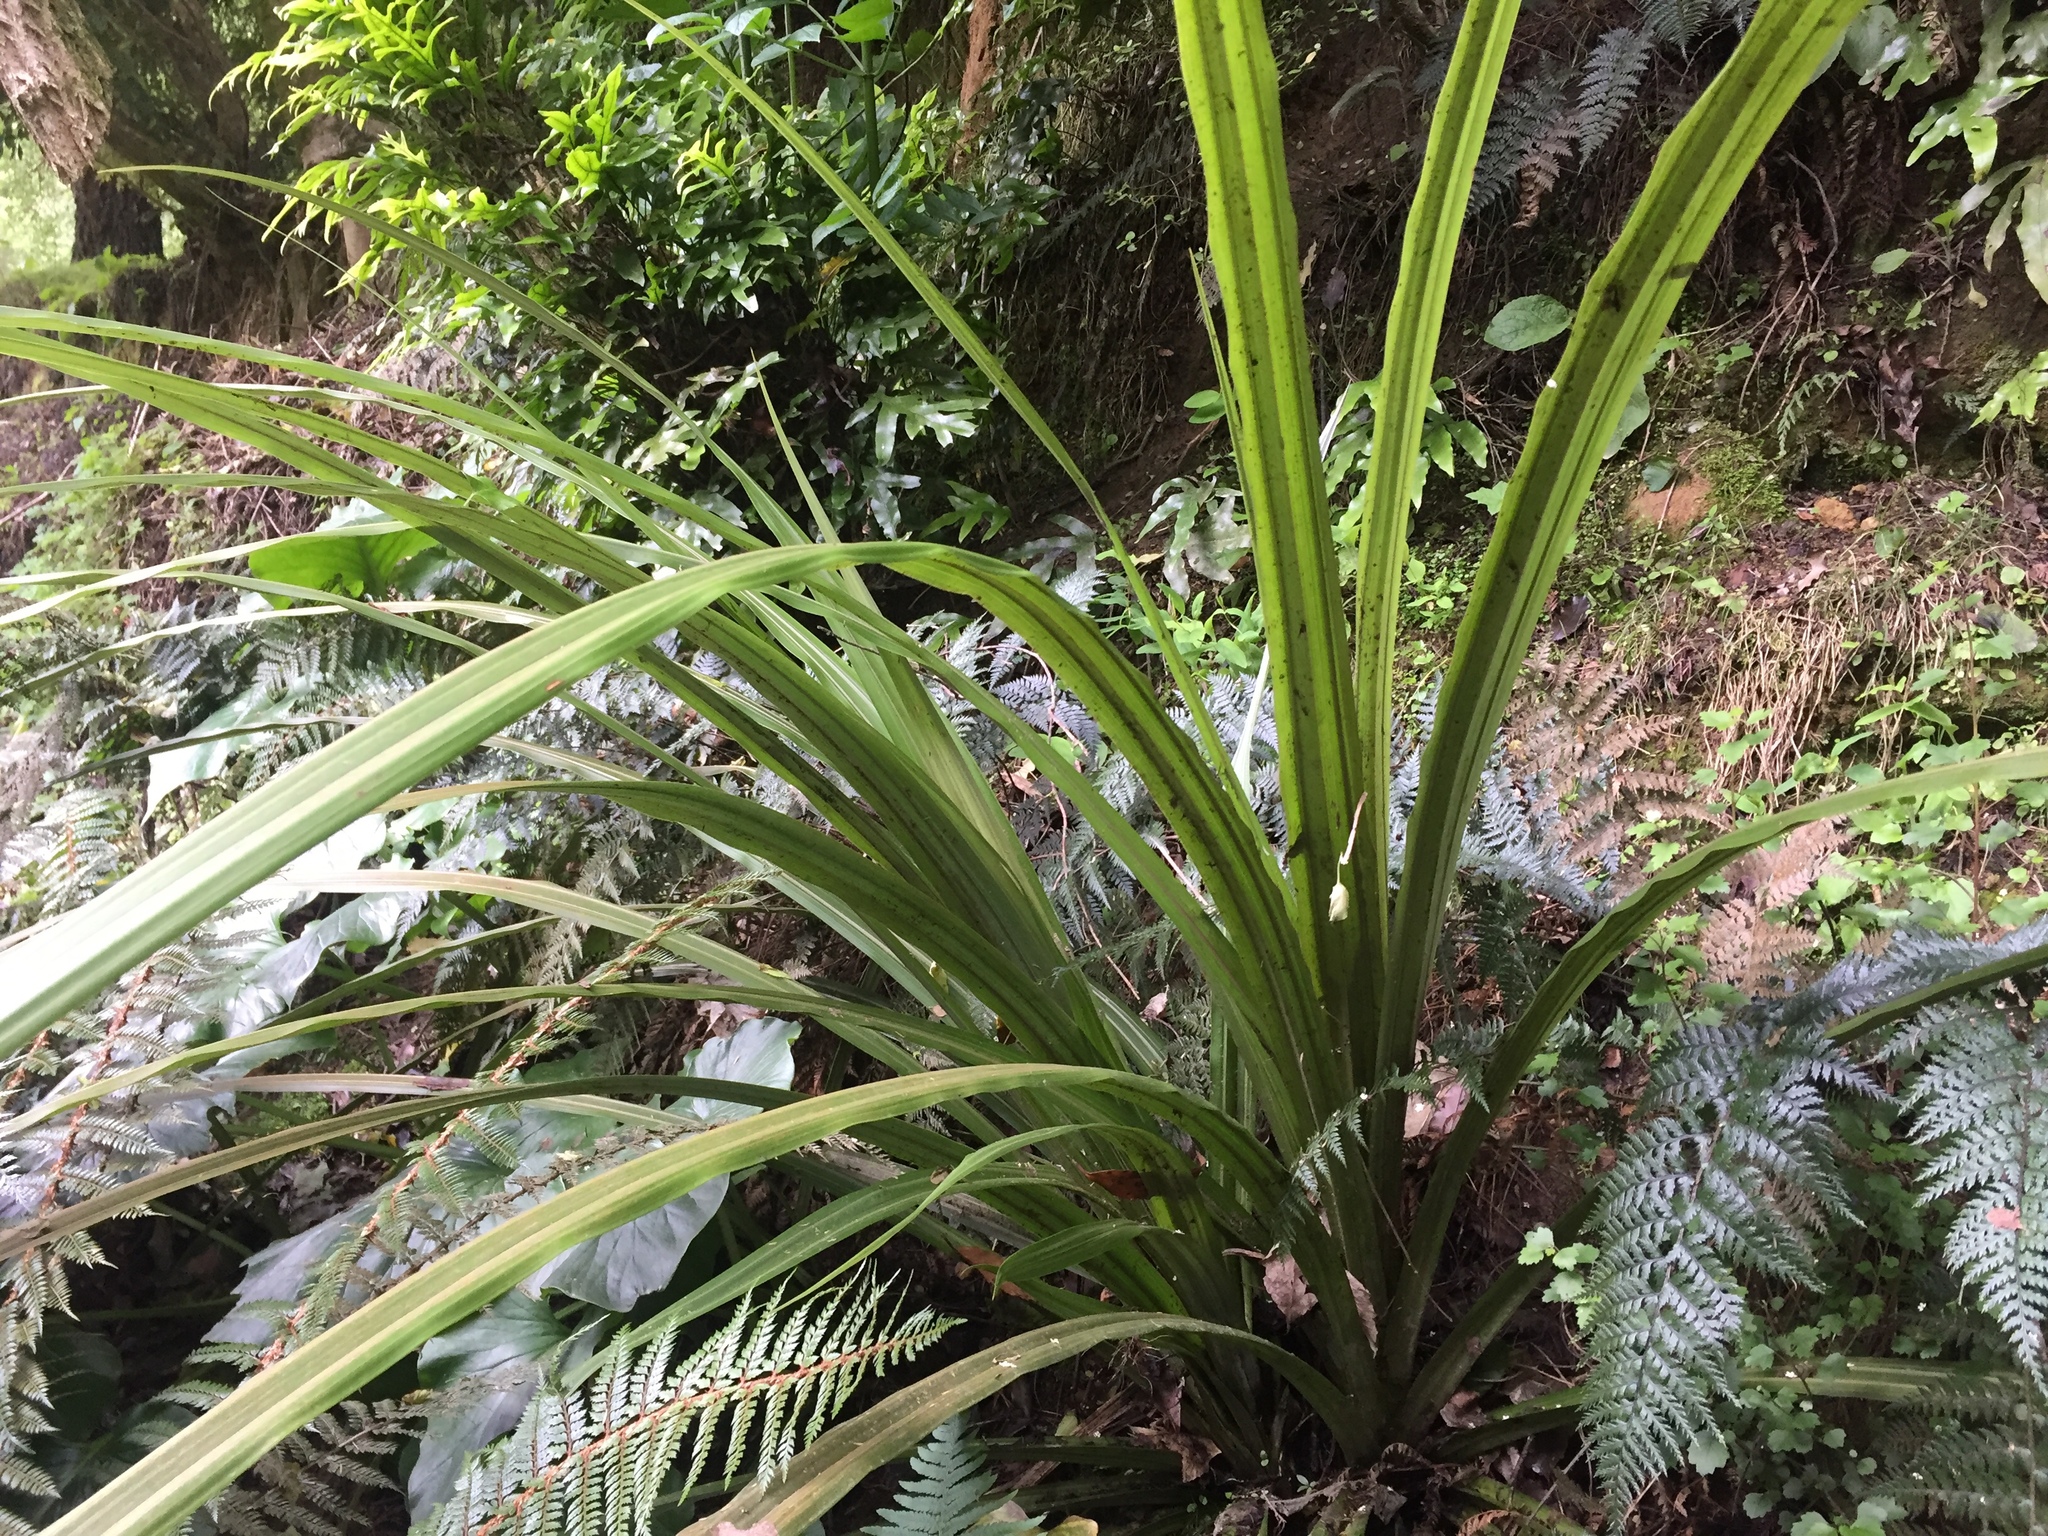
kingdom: Plantae
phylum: Tracheophyta
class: Liliopsida
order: Asparagales
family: Asteliaceae
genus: Astelia
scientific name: Astelia fragrans
